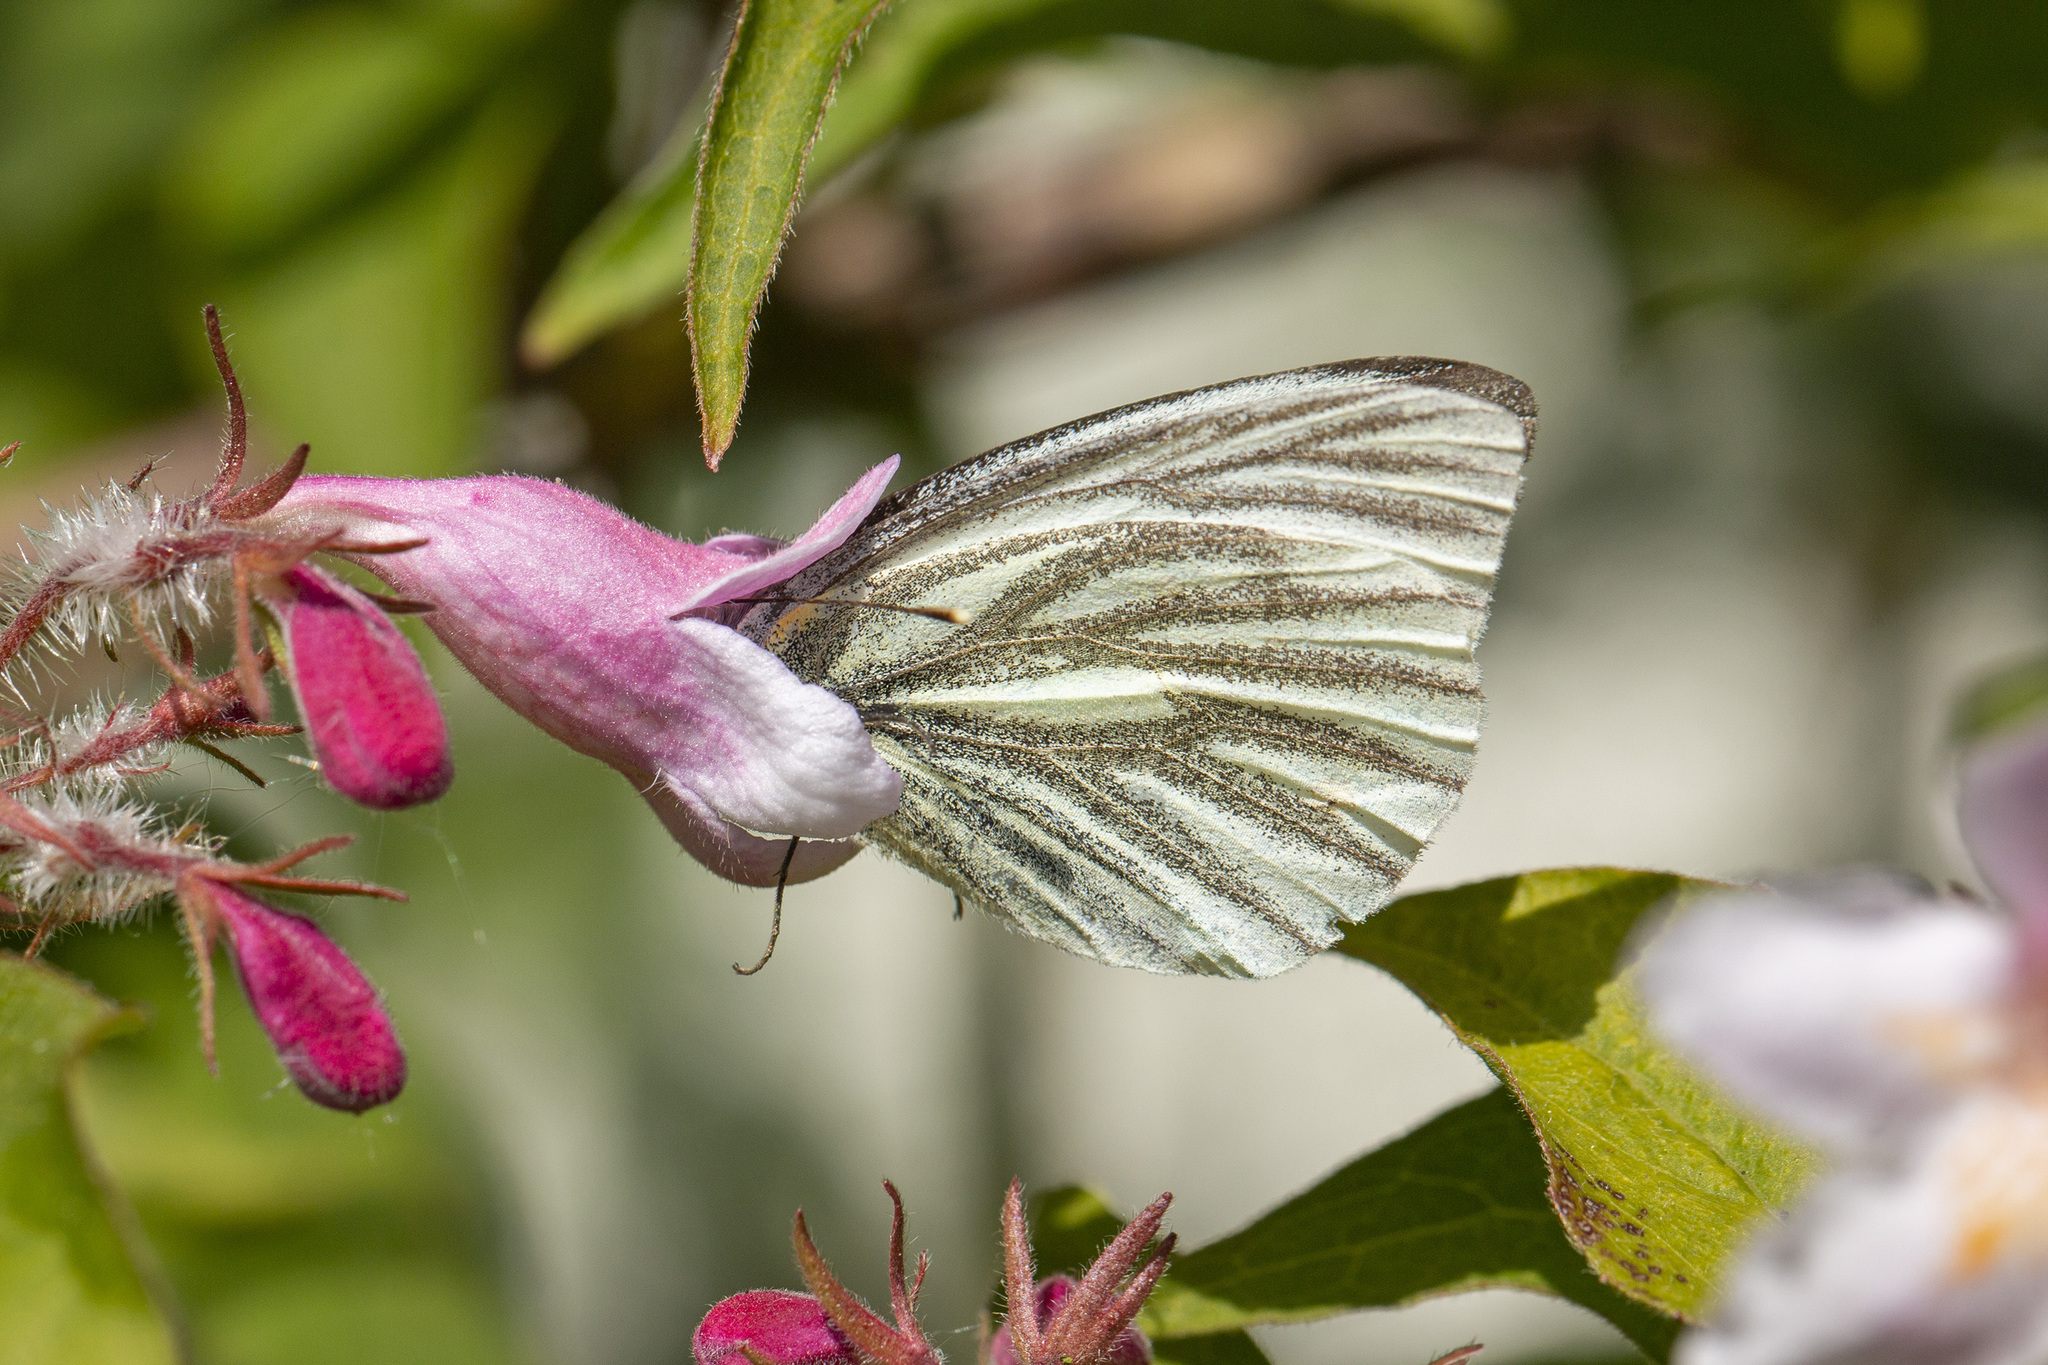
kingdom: Animalia
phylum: Arthropoda
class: Insecta
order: Lepidoptera
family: Pieridae
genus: Pieris
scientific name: Pieris napi
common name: Green-veined white
